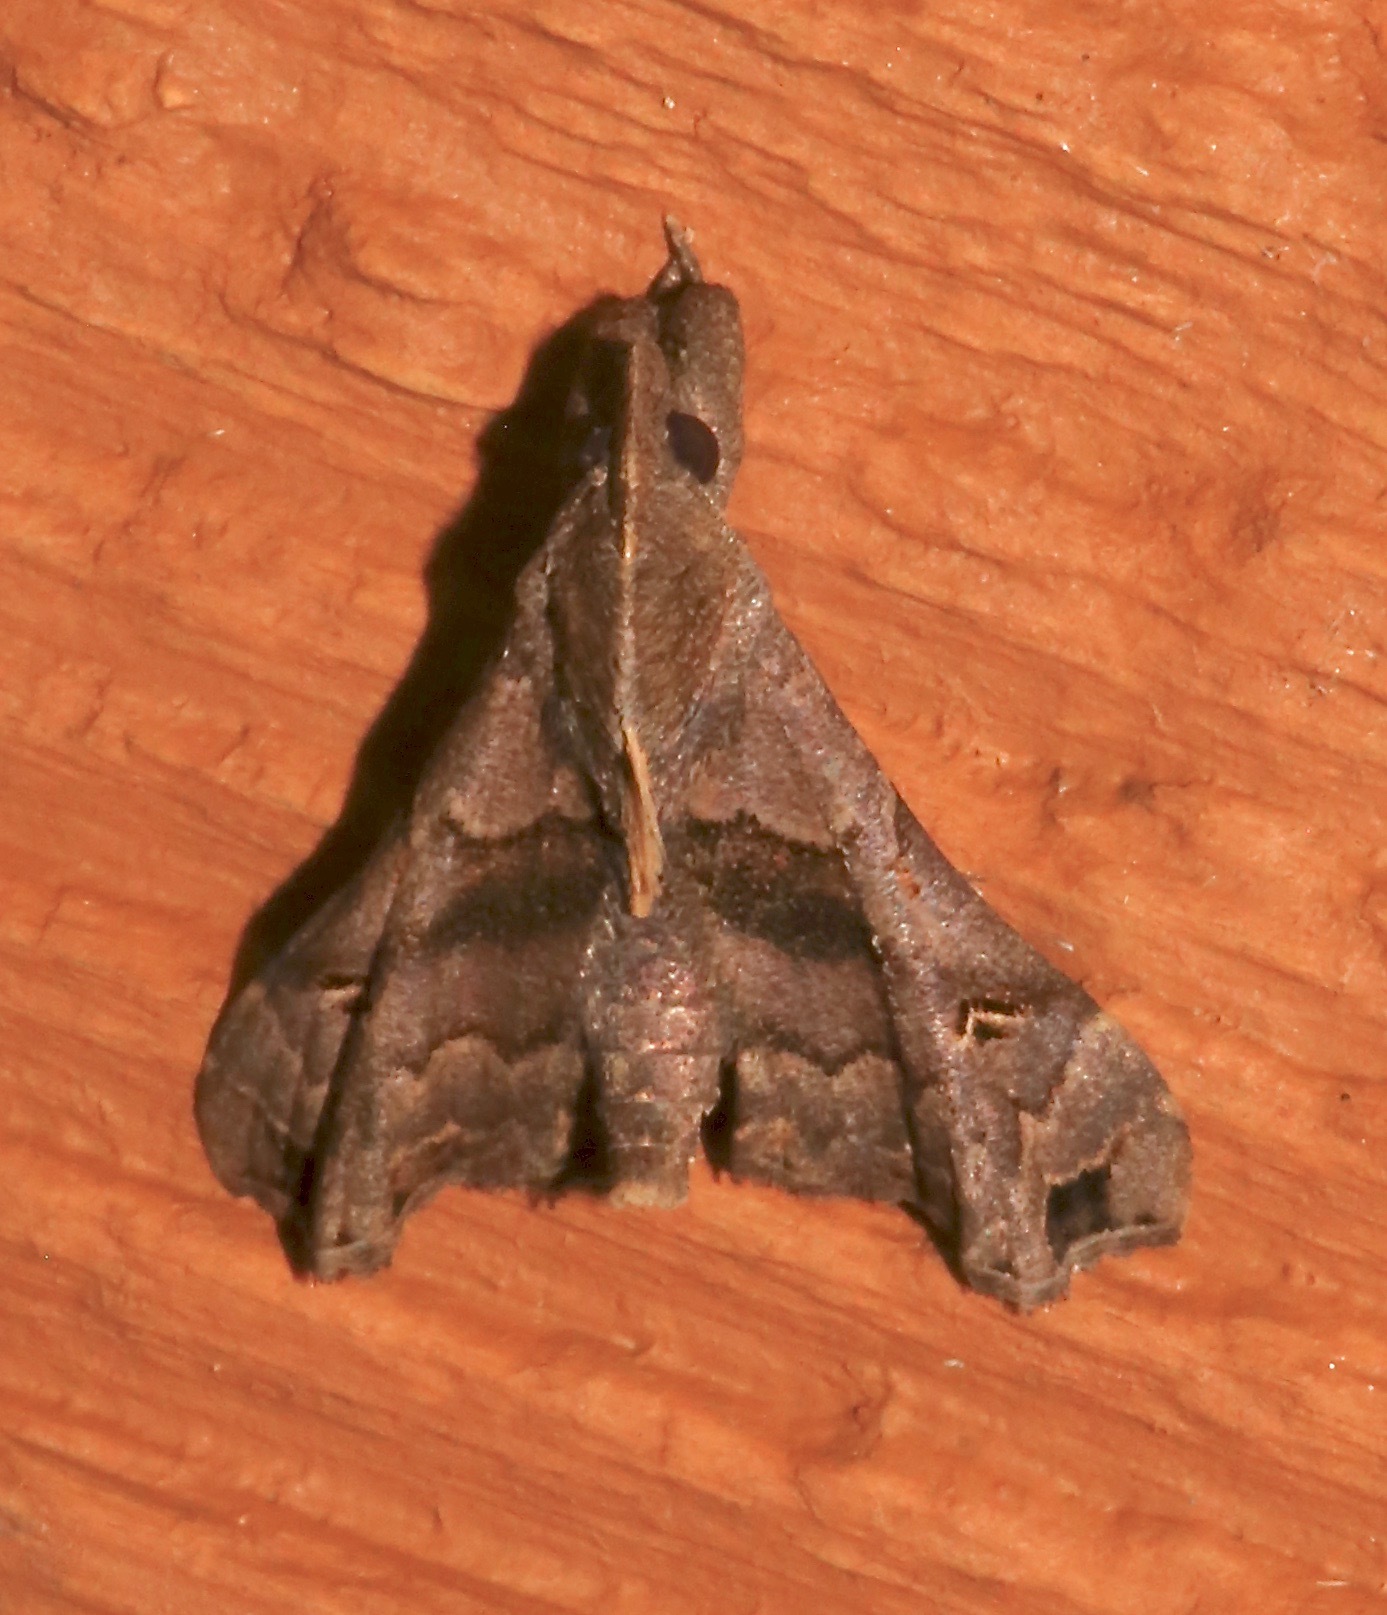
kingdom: Animalia
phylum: Arthropoda
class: Insecta
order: Lepidoptera
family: Erebidae
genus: Palthis
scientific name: Palthis asopialis
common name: Faint-spotted palthis moth
